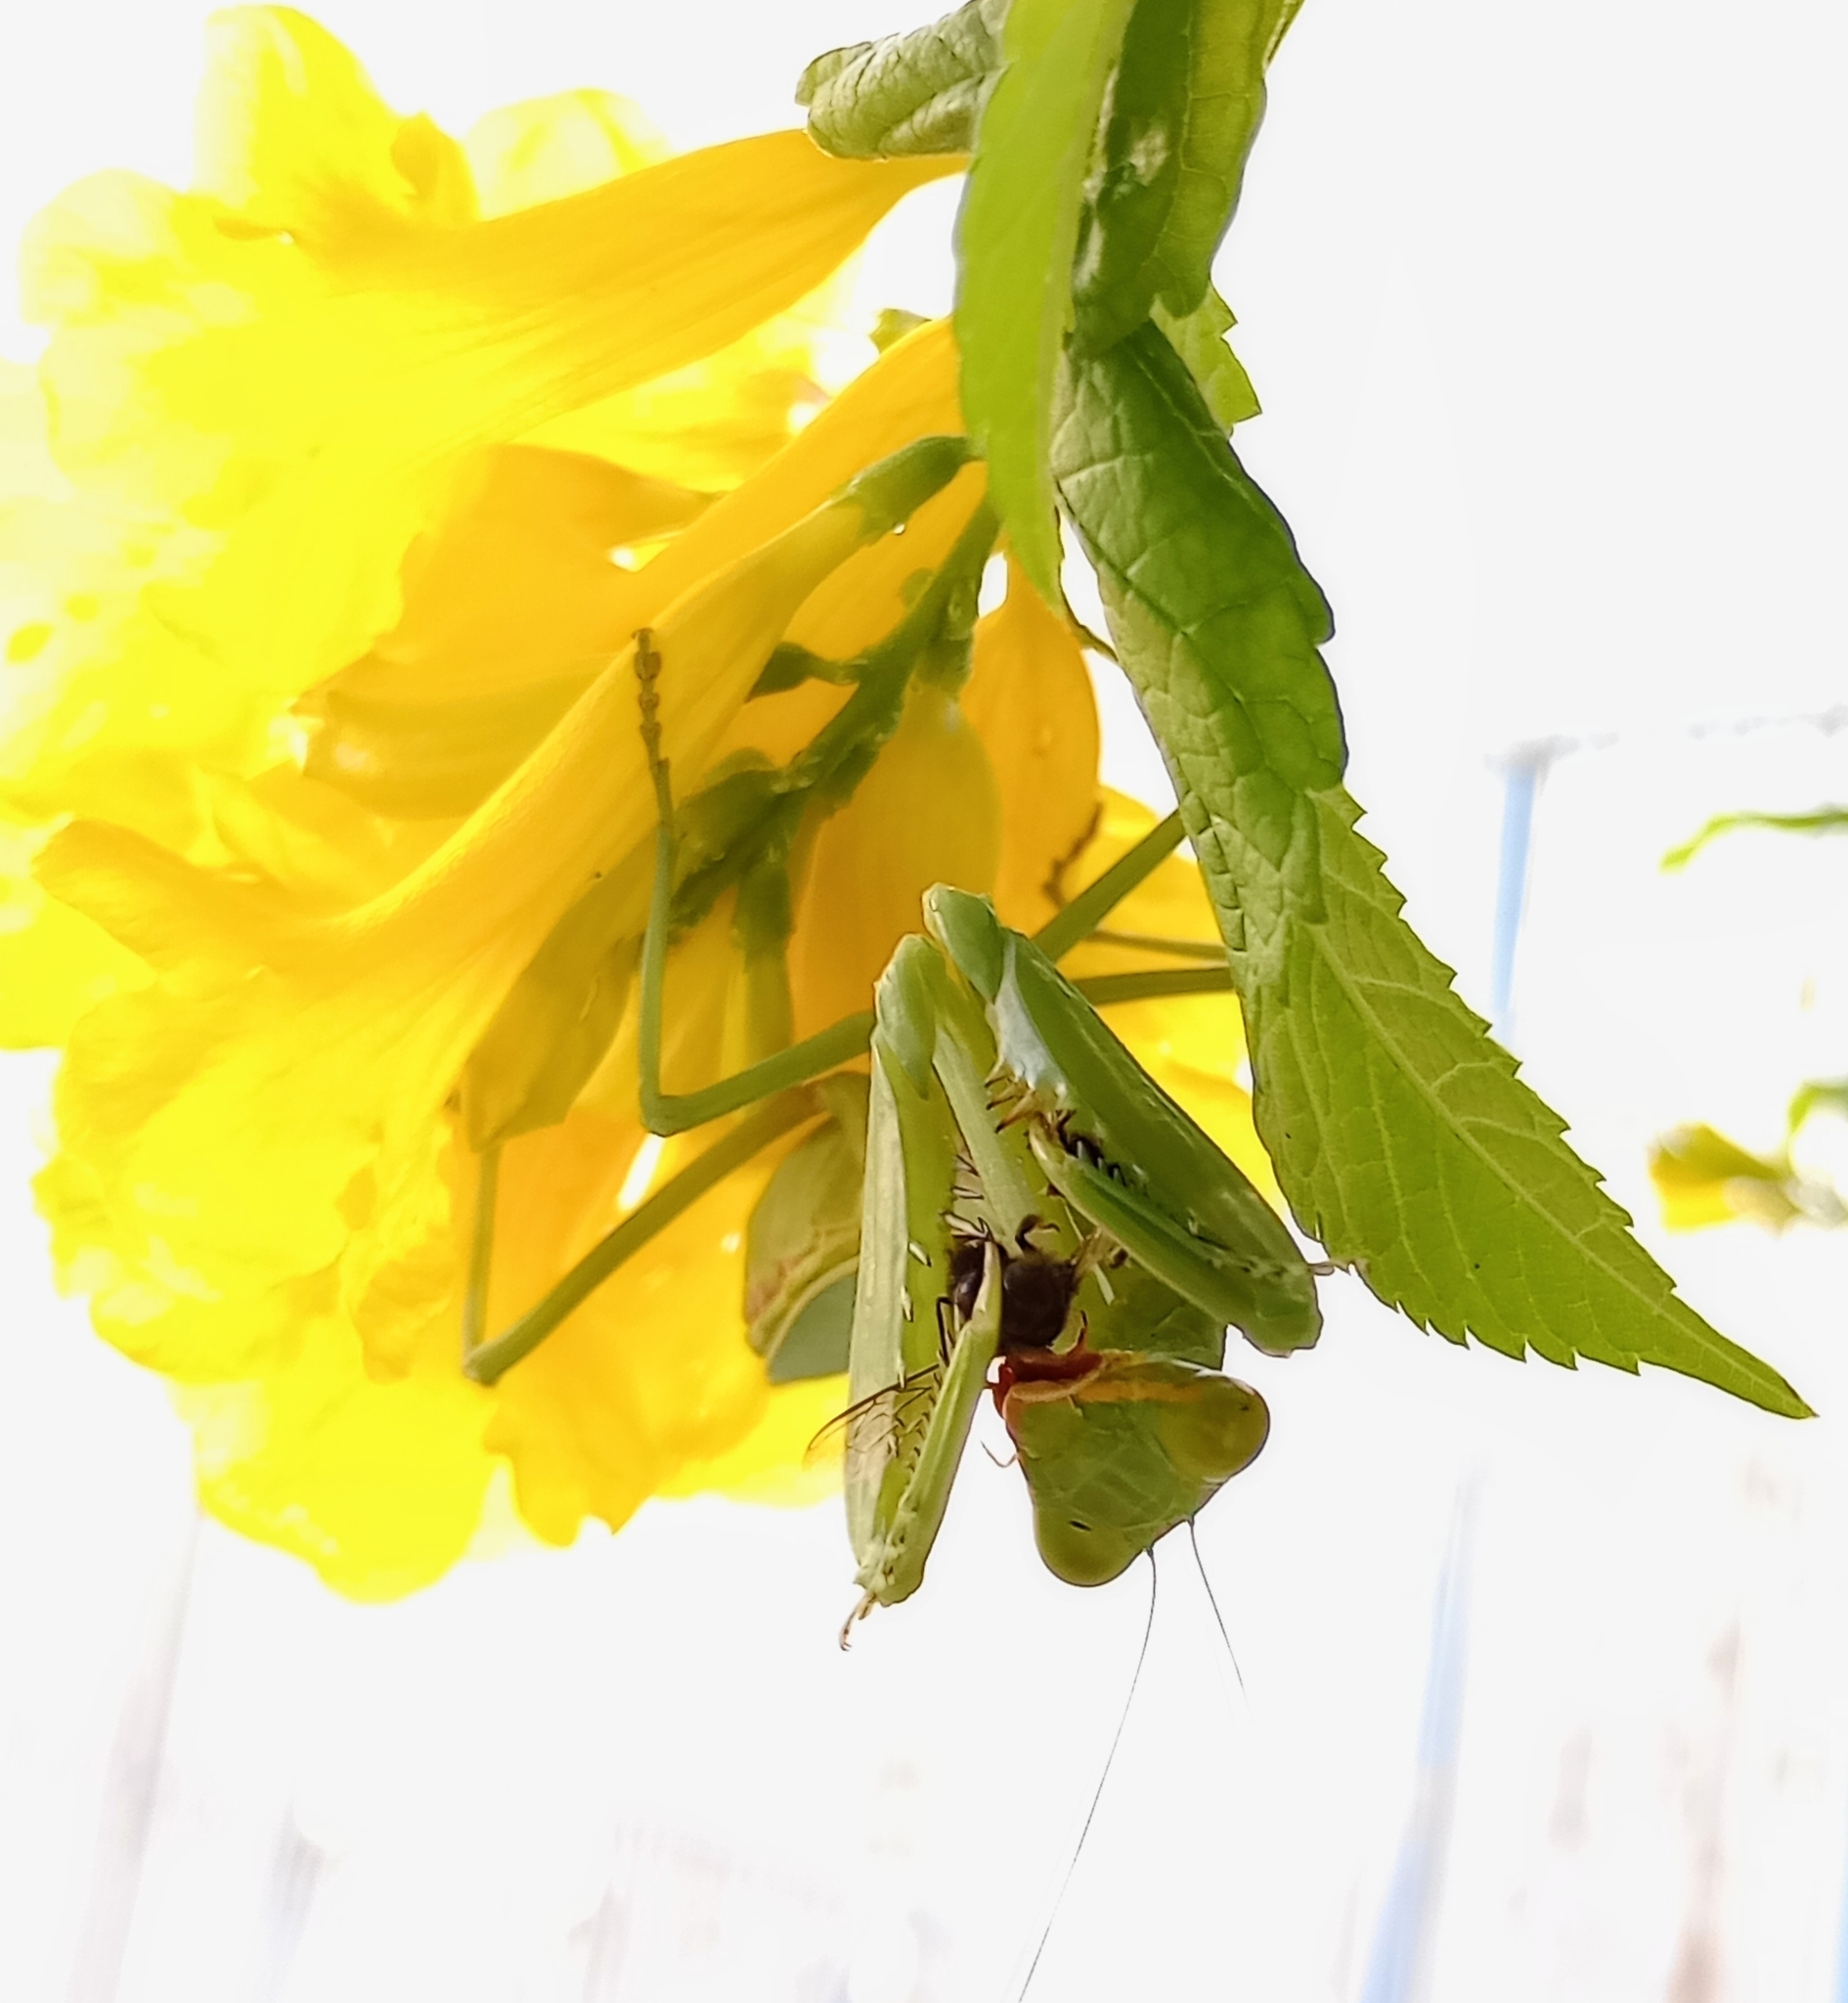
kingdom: Animalia
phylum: Arthropoda
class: Insecta
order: Mantodea
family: Mantidae
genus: Hierodula
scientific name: Hierodula tenuidentata
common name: Giant asian mantis
